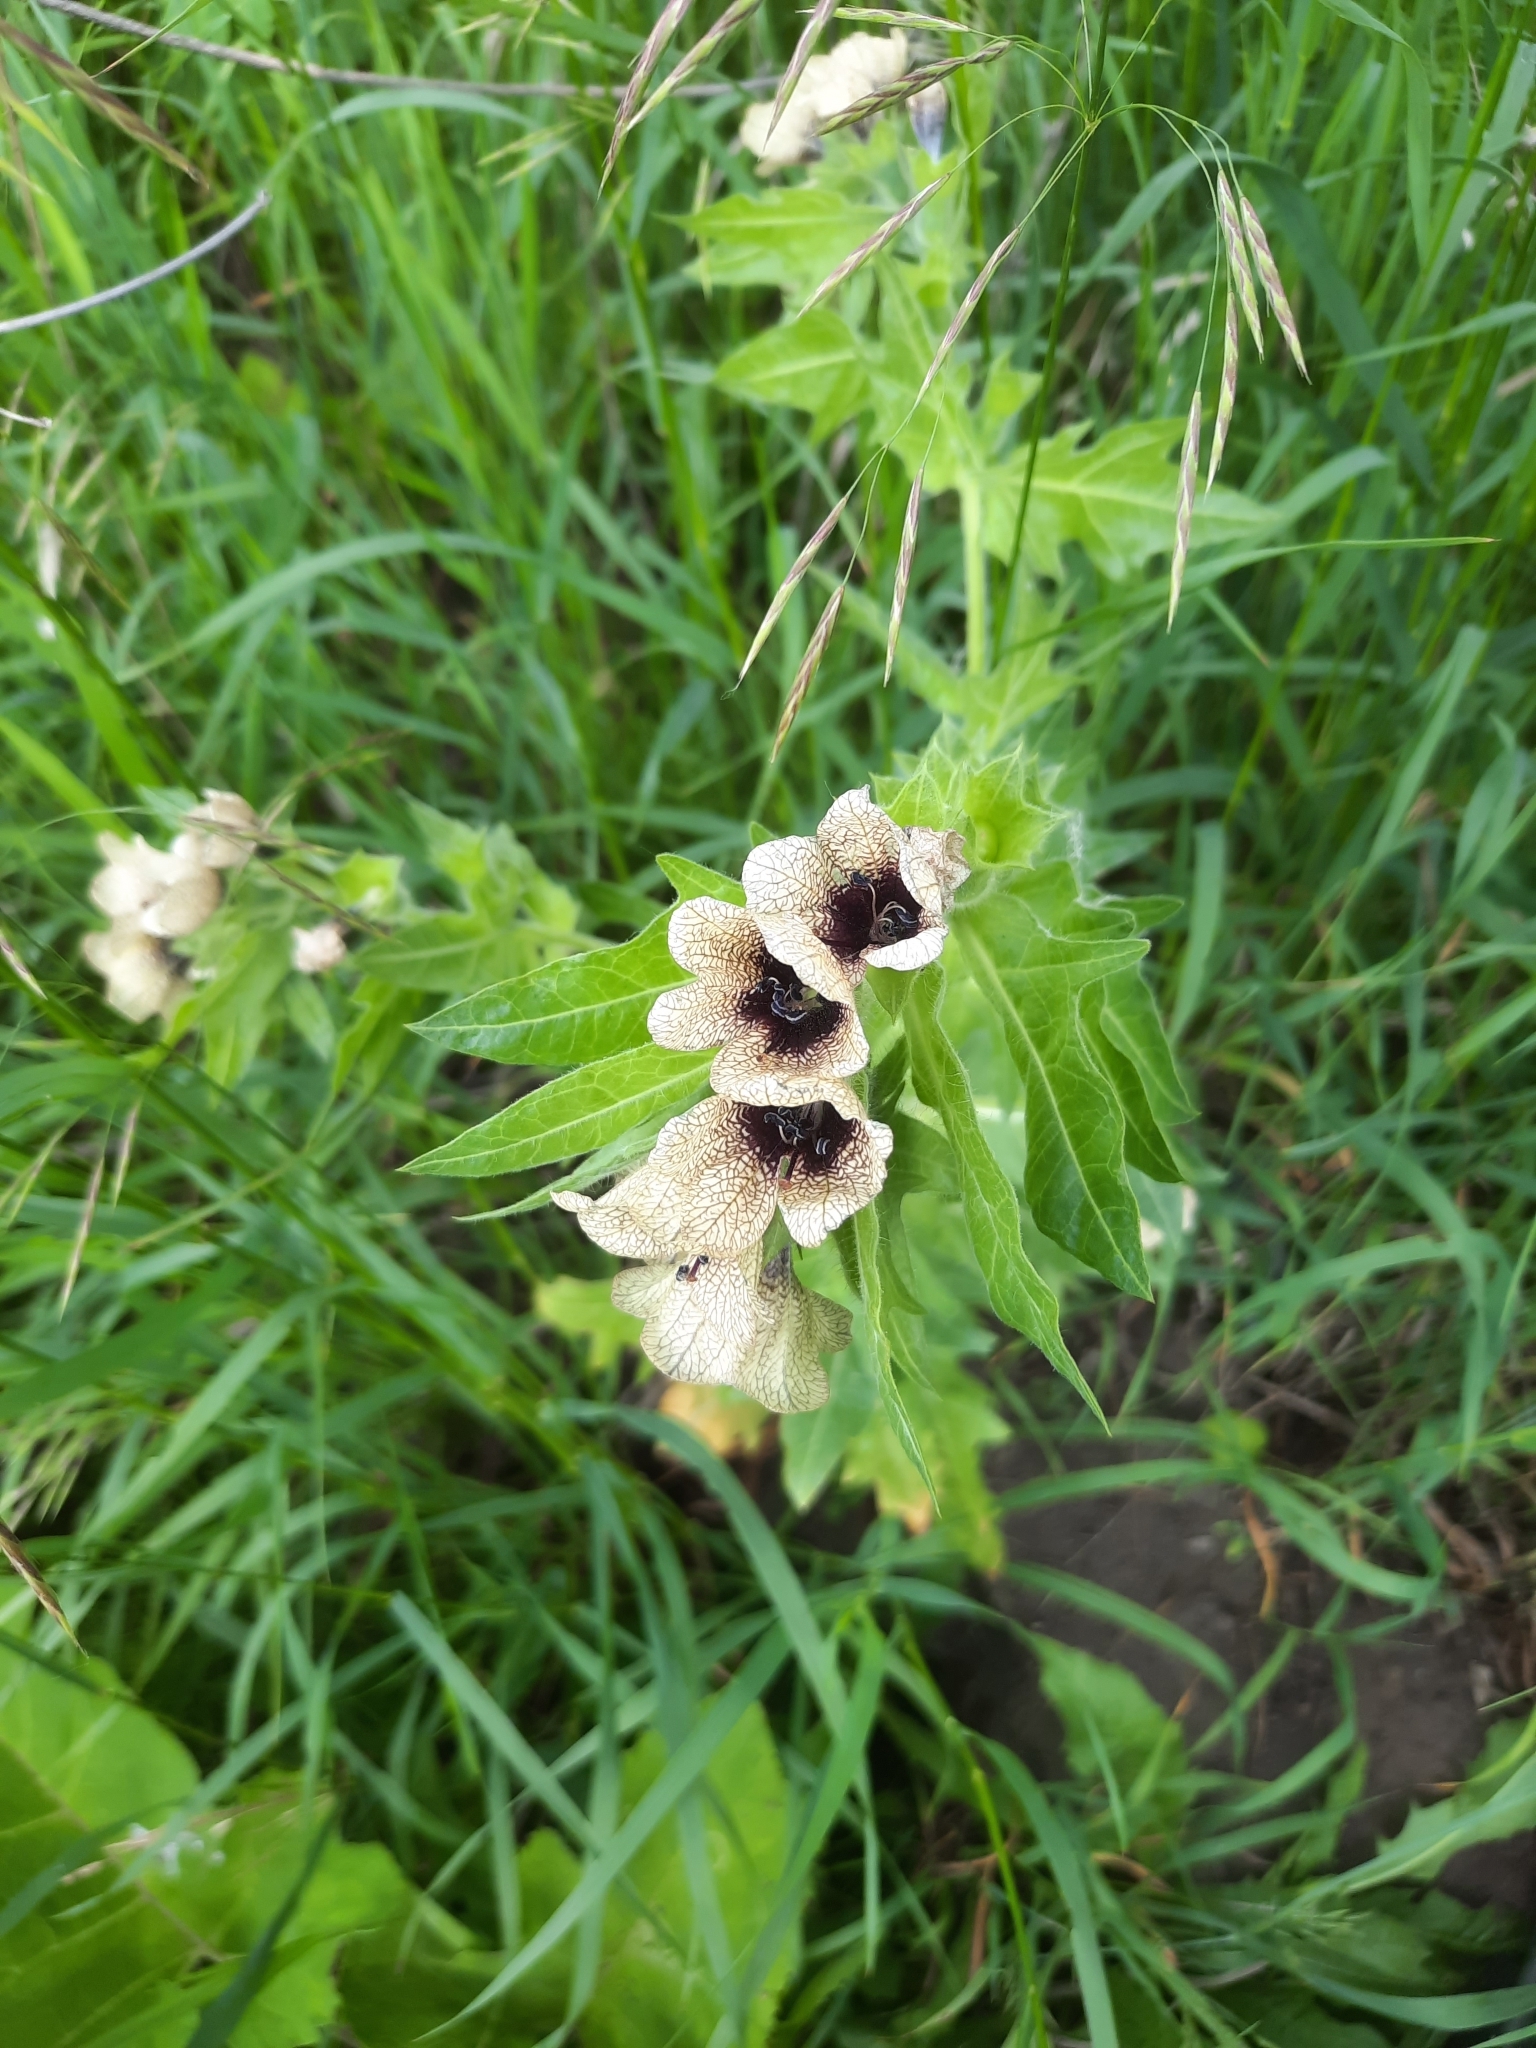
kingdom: Plantae
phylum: Tracheophyta
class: Magnoliopsida
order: Solanales
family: Solanaceae
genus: Hyoscyamus
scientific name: Hyoscyamus niger
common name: Henbane
